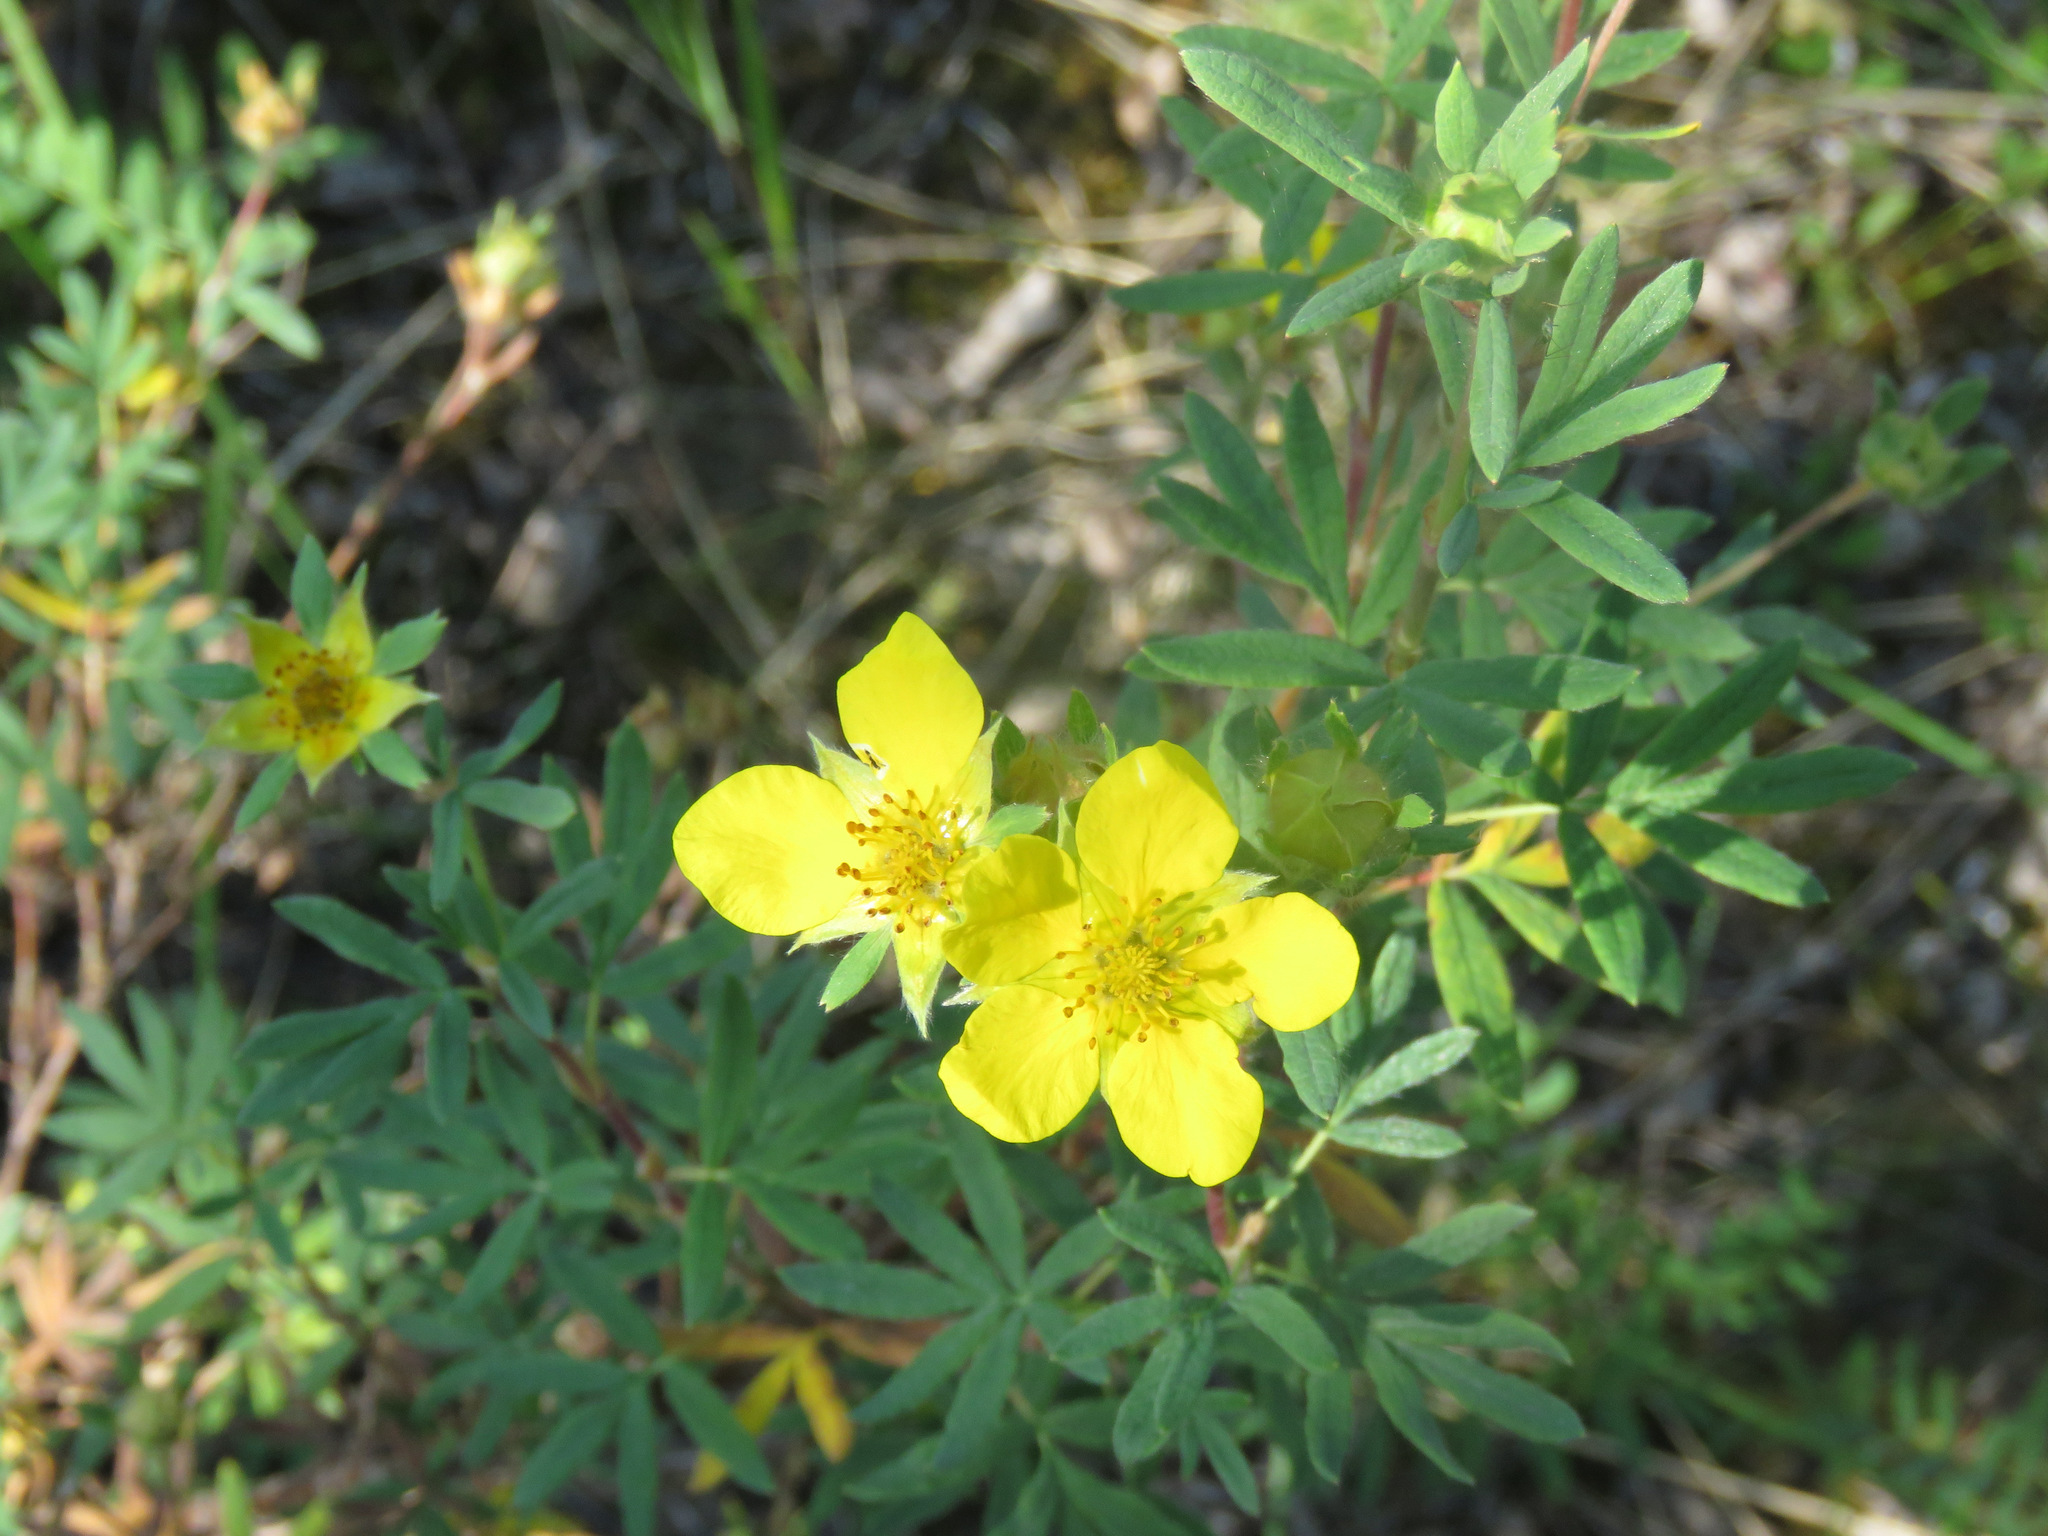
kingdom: Plantae
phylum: Tracheophyta
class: Magnoliopsida
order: Rosales
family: Rosaceae
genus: Dasiphora
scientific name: Dasiphora fruticosa
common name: Shrubby cinquefoil
